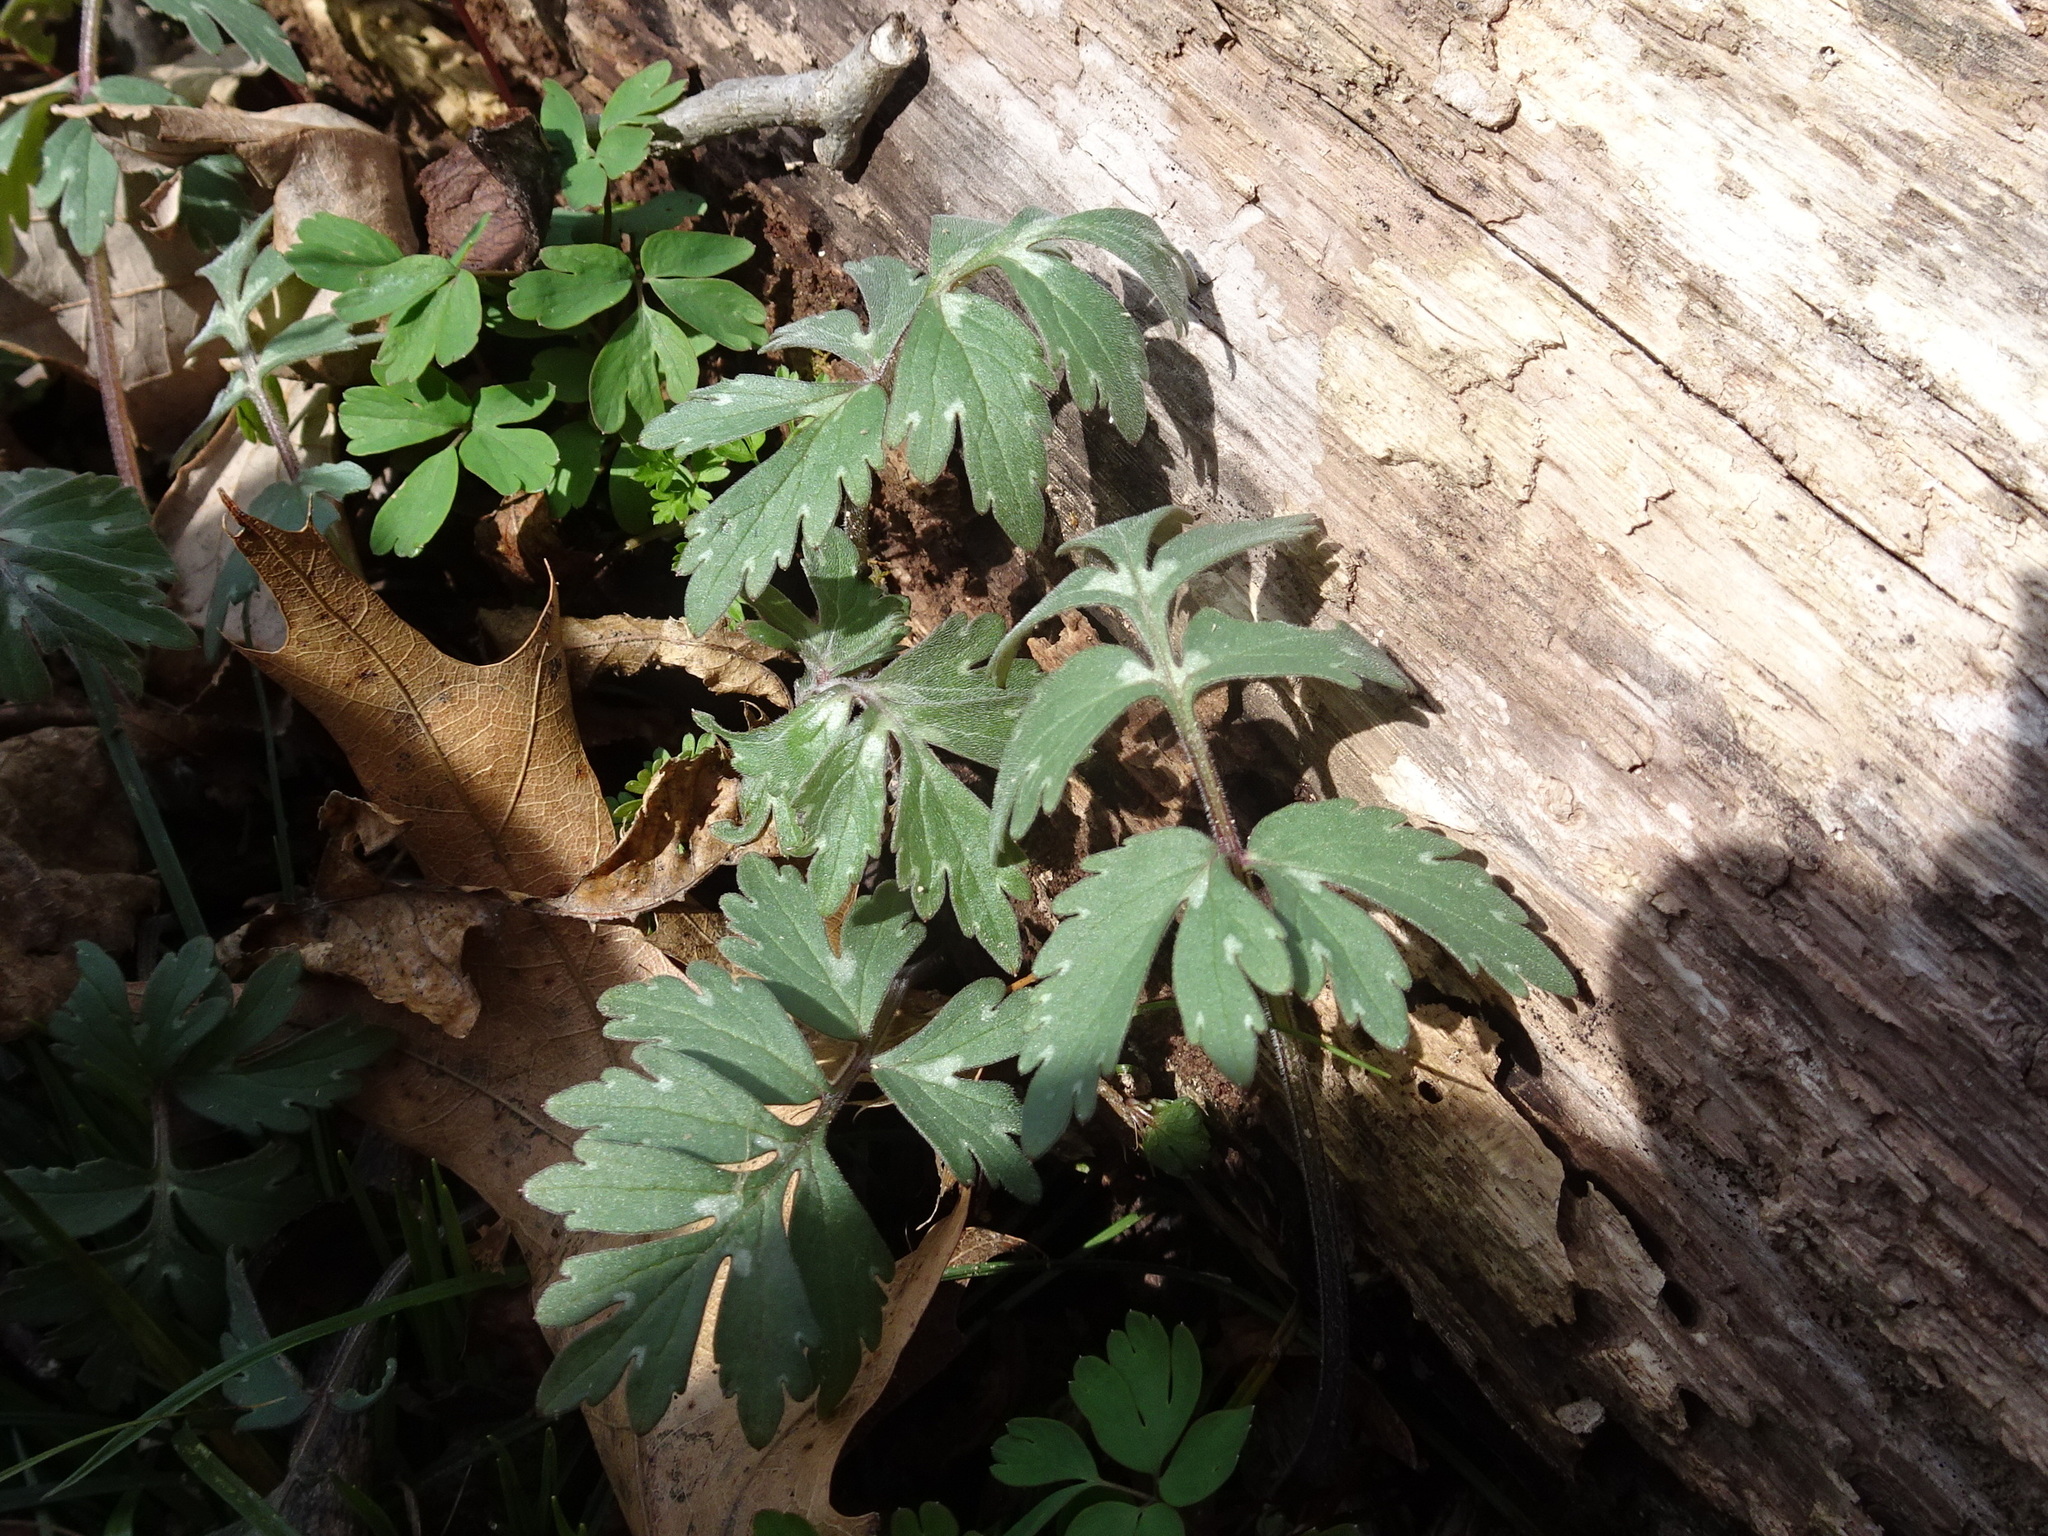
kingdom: Plantae
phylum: Tracheophyta
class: Magnoliopsida
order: Boraginales
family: Hydrophyllaceae
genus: Hydrophyllum
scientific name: Hydrophyllum virginianum
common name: Virginia waterleaf
